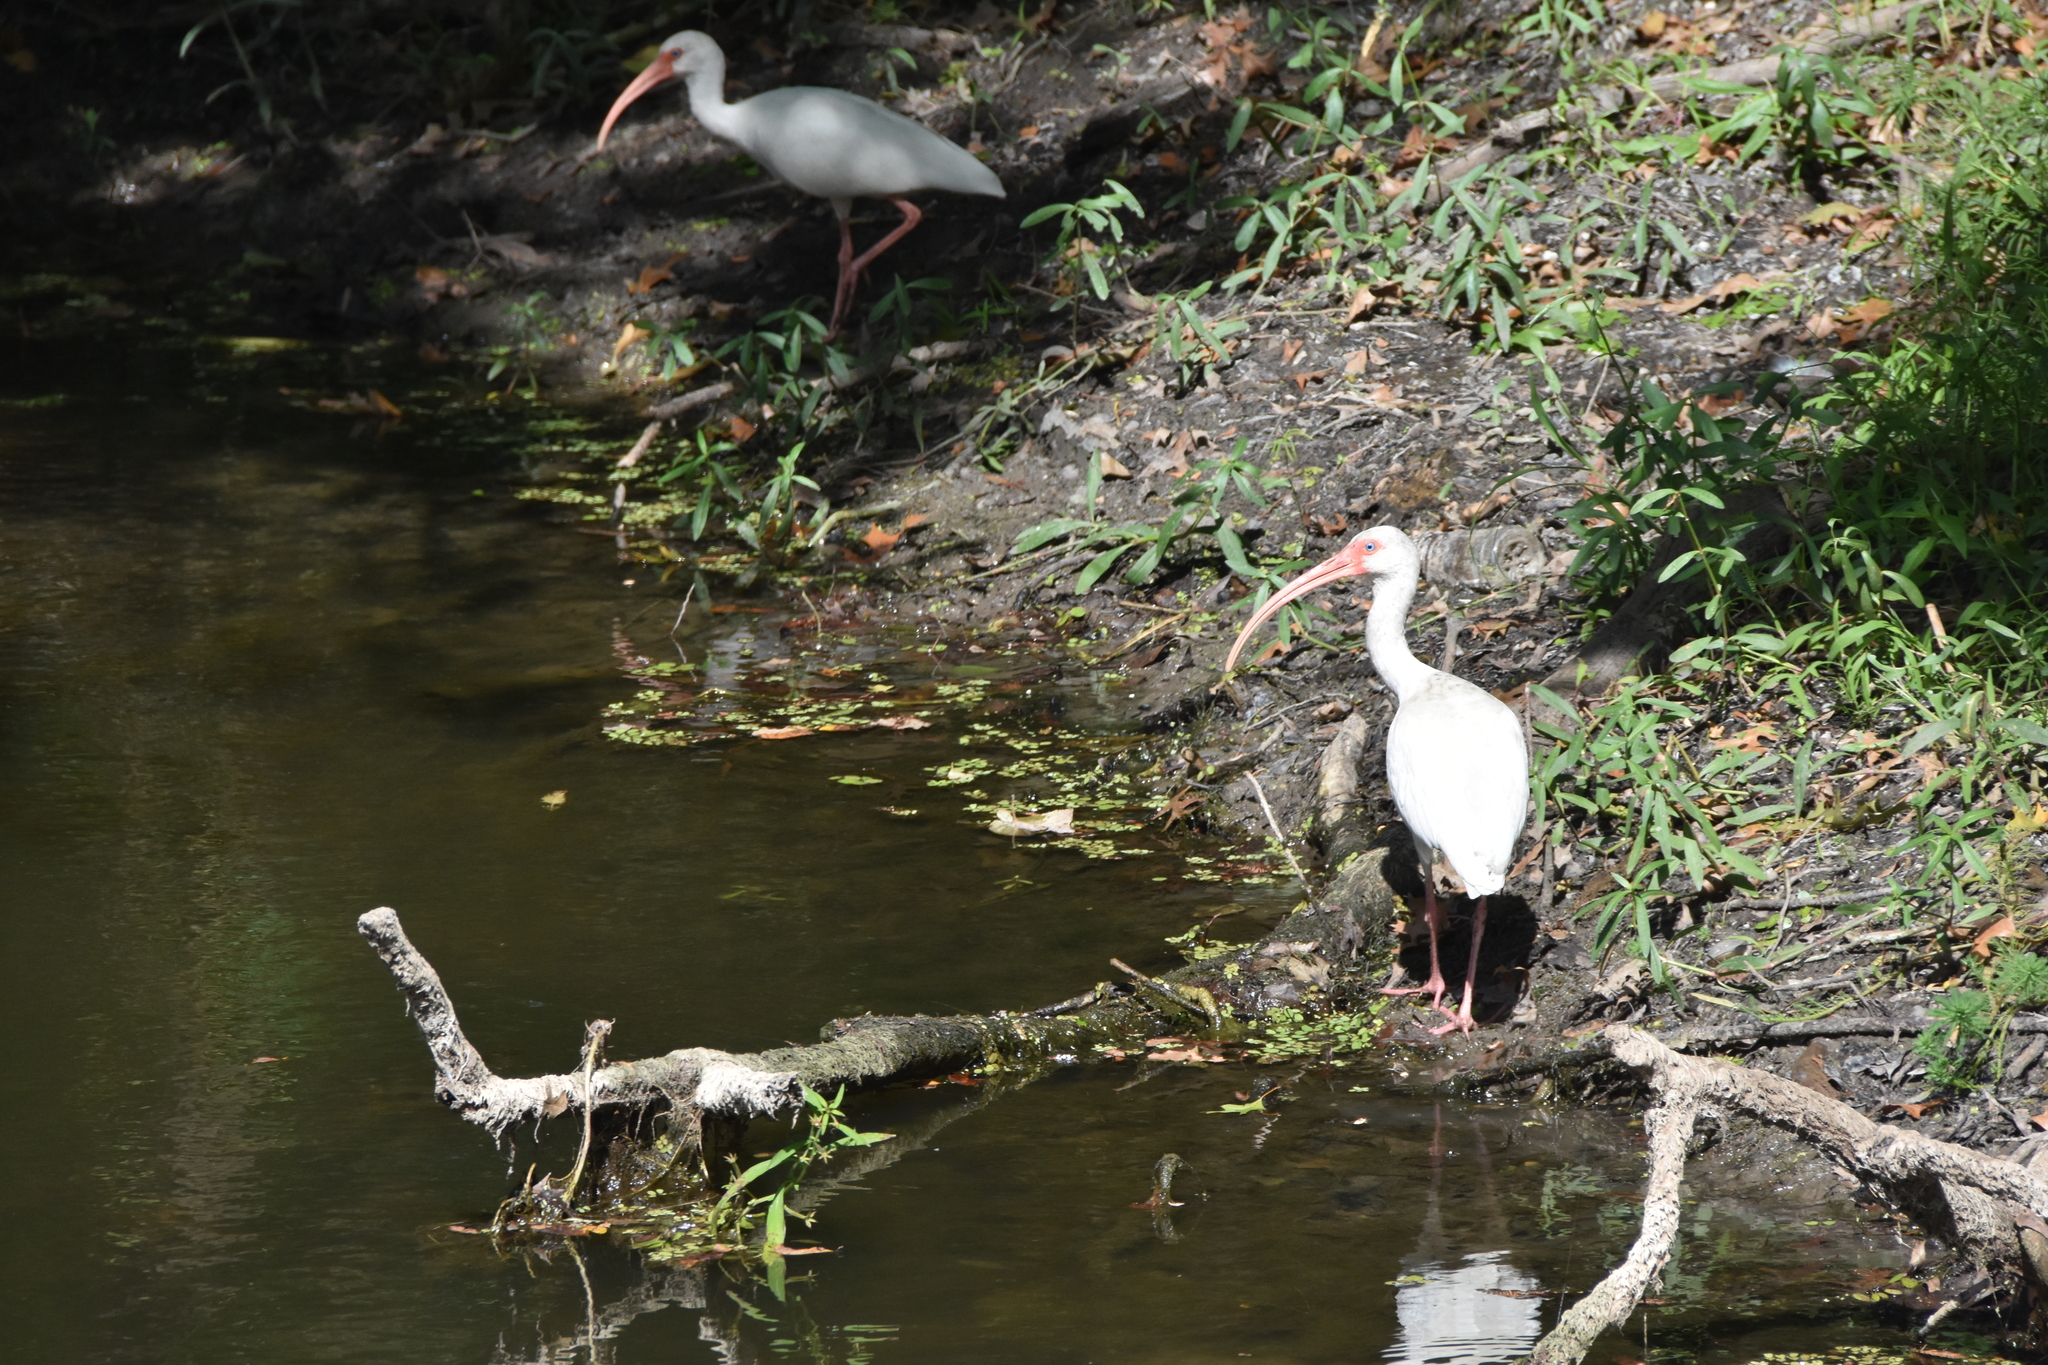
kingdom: Animalia
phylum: Chordata
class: Aves
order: Pelecaniformes
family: Threskiornithidae
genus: Eudocimus
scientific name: Eudocimus albus
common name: White ibis
